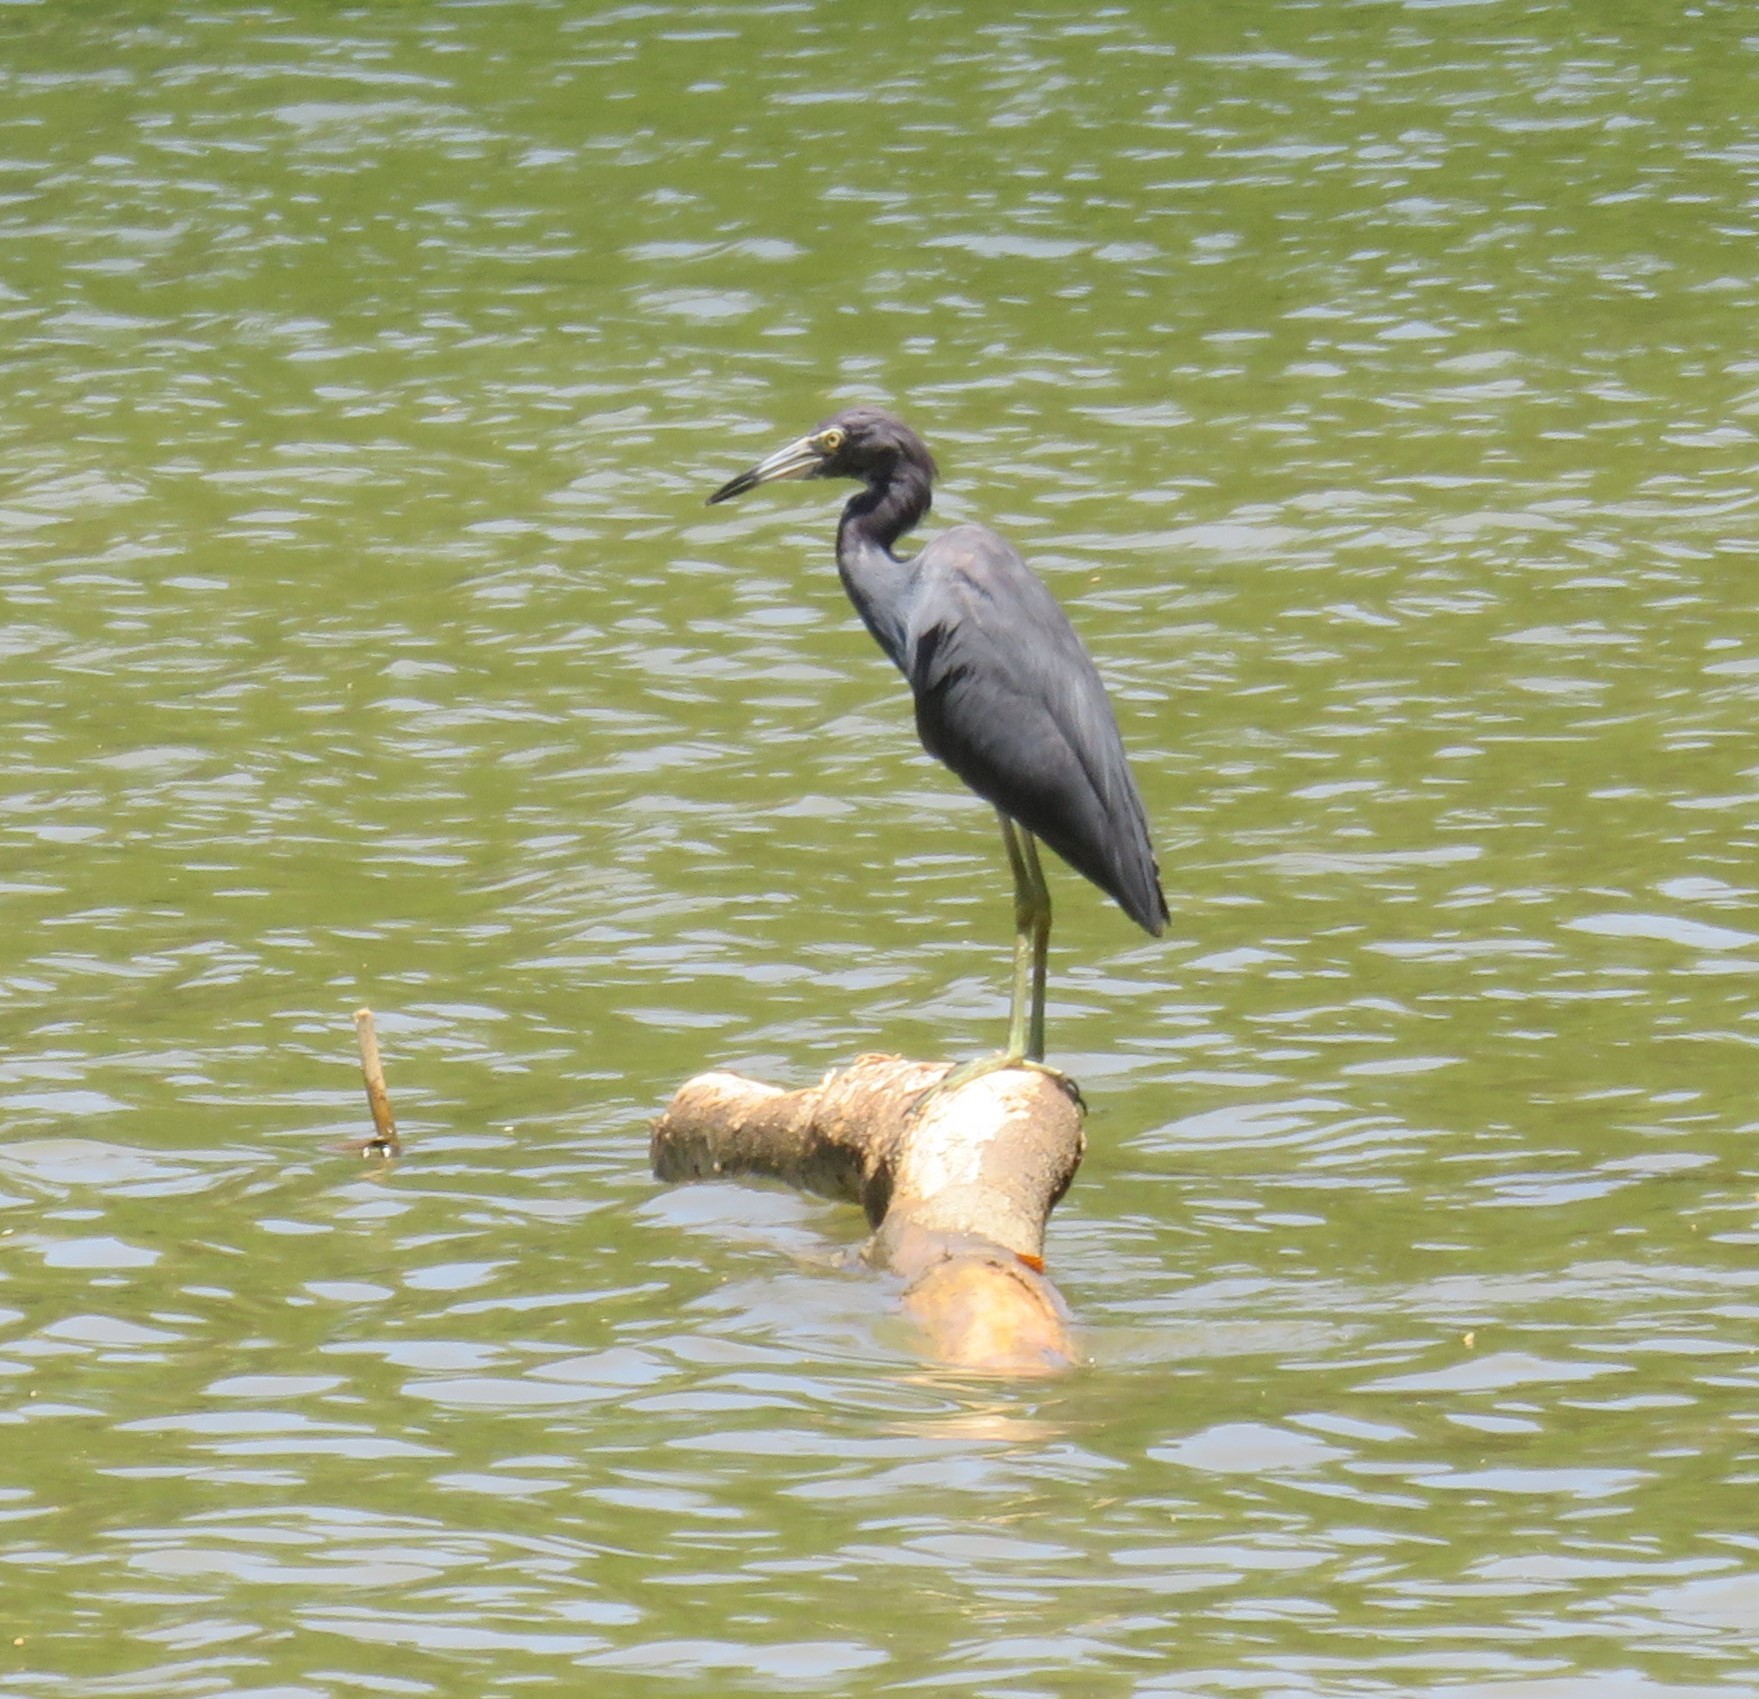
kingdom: Animalia
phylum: Chordata
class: Aves
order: Pelecaniformes
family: Ardeidae
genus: Egretta
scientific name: Egretta caerulea
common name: Little blue heron
